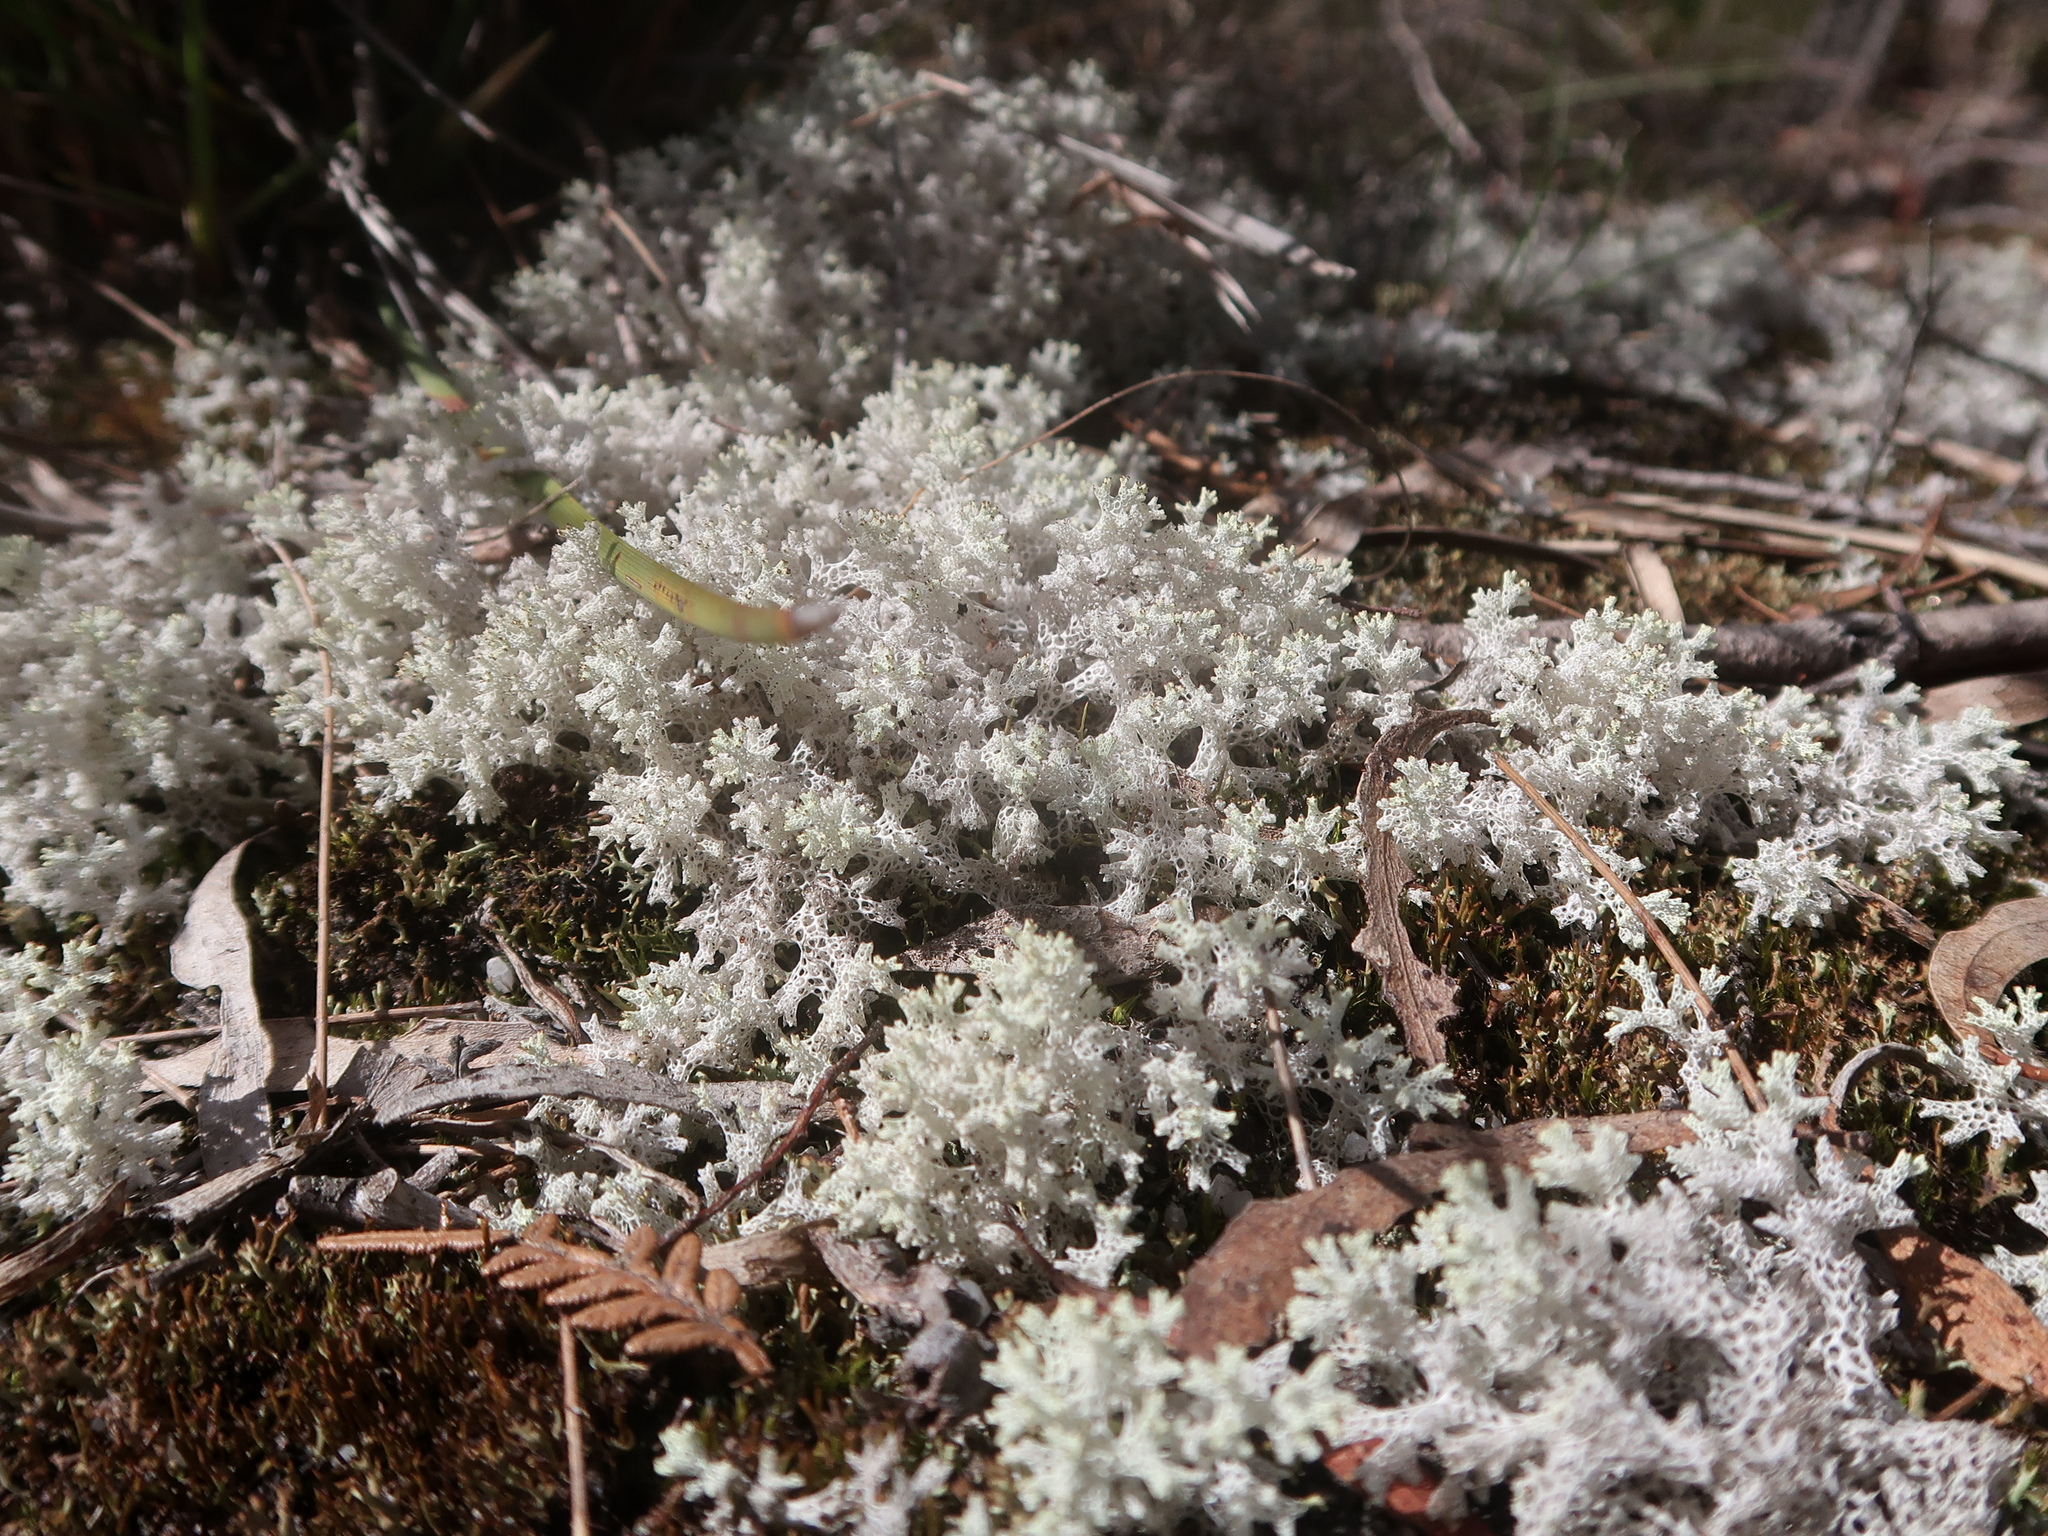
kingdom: Fungi
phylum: Ascomycota
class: Lecanoromycetes
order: Lecanorales
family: Cladoniaceae
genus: Pulchrocladia
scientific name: Pulchrocladia retipora
